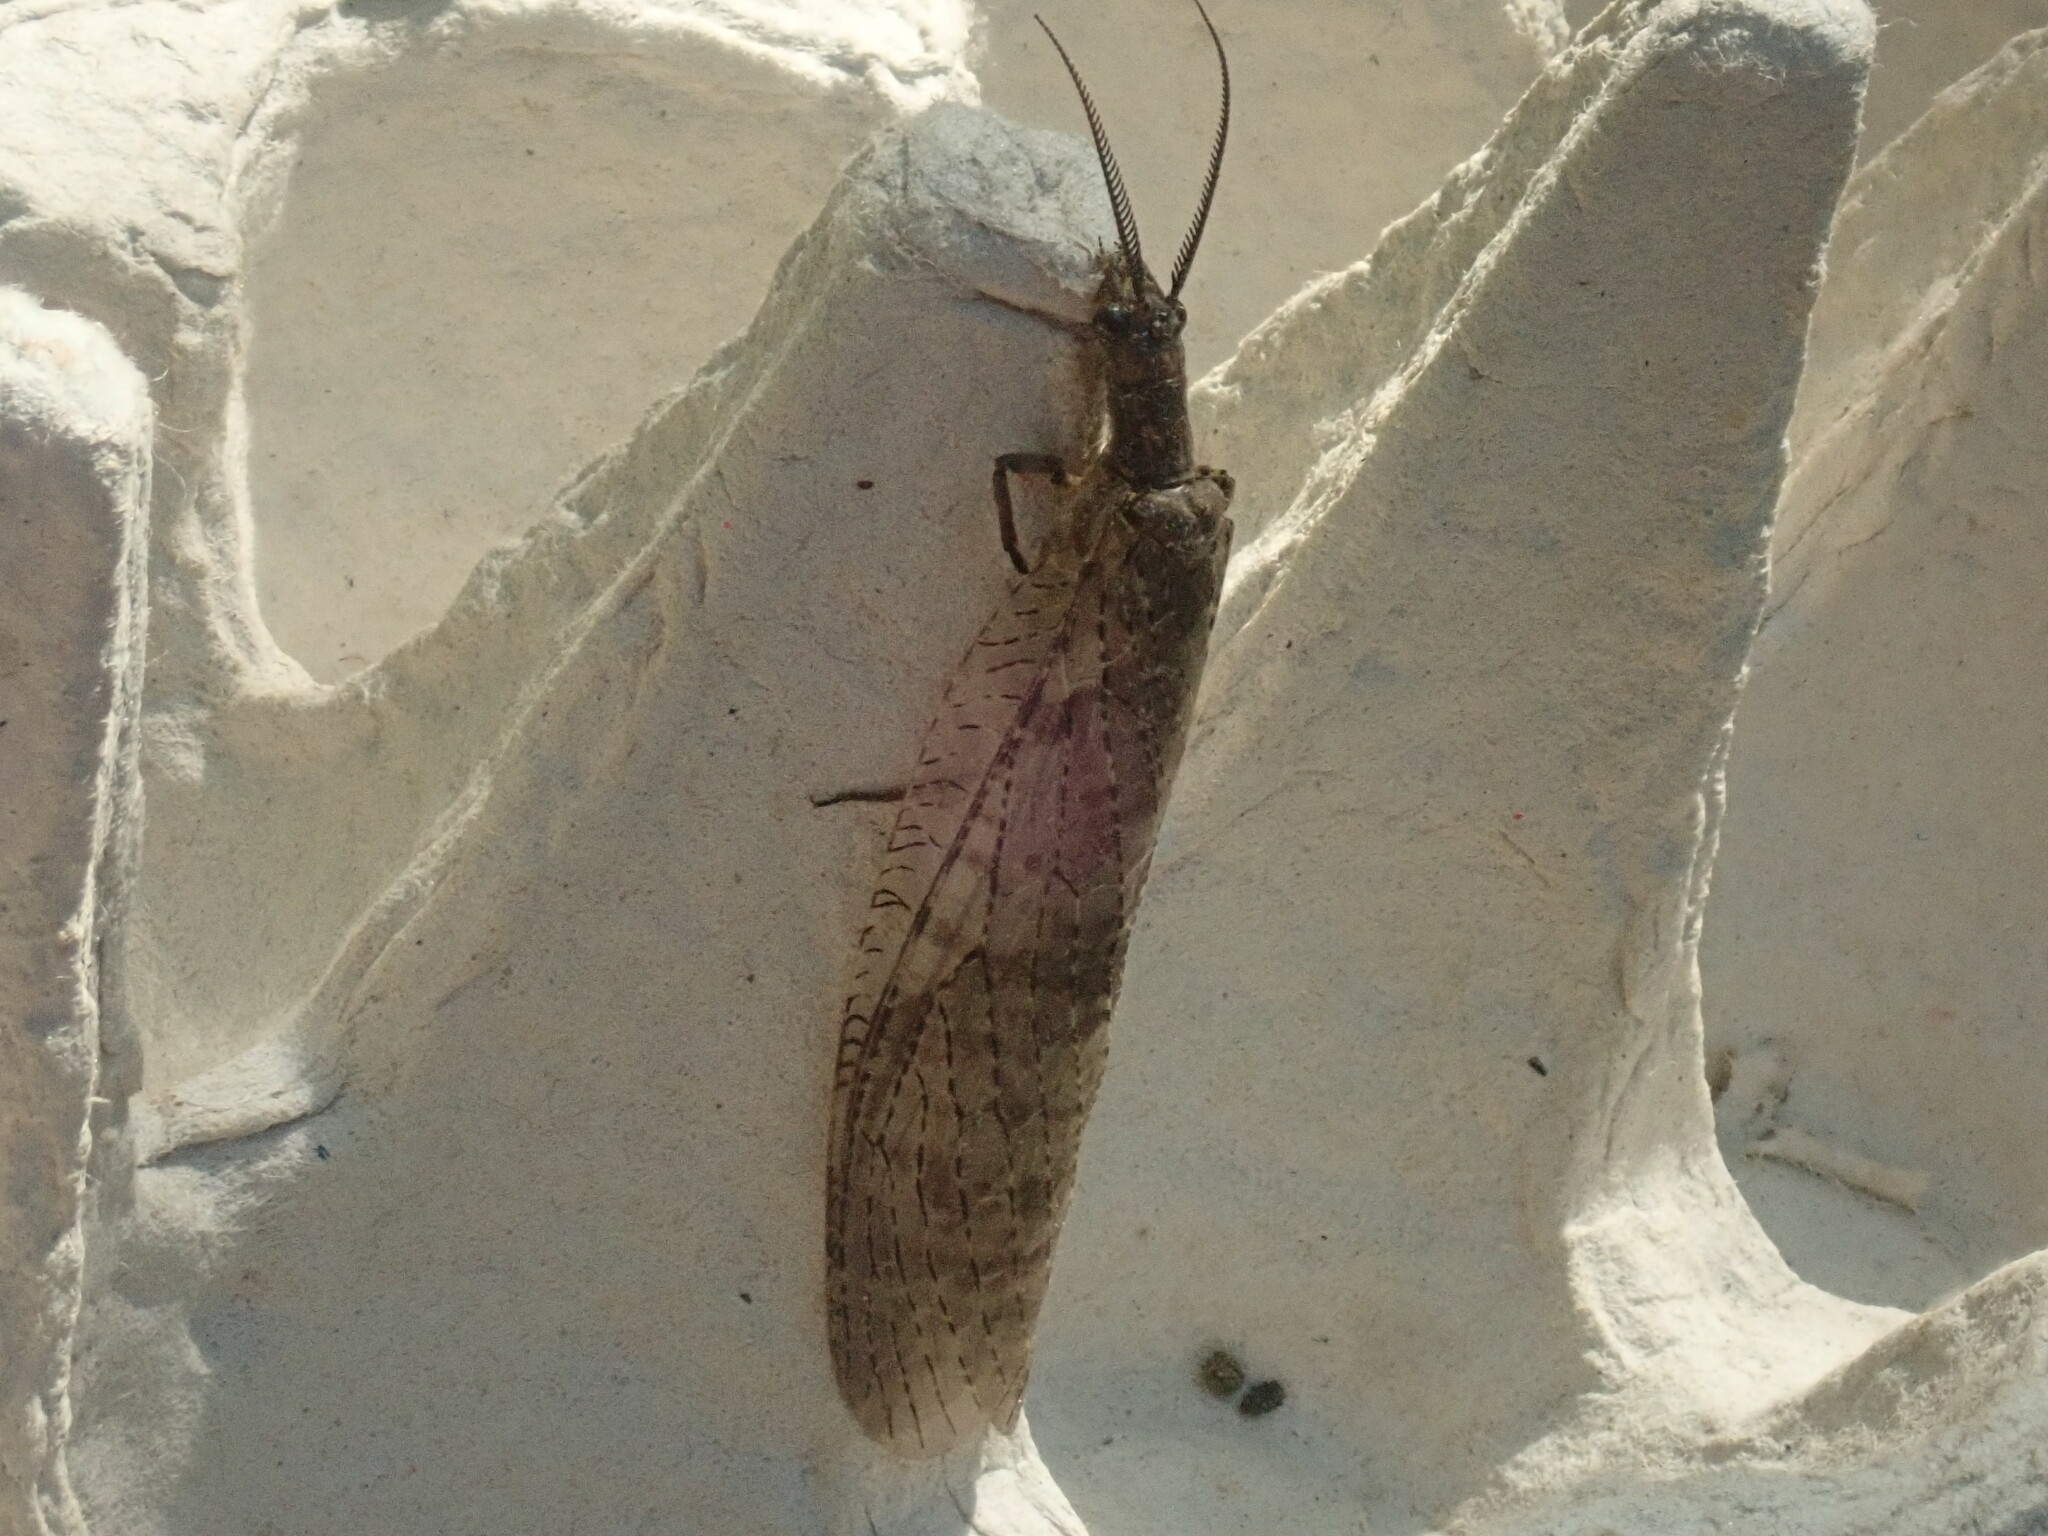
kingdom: Animalia
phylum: Arthropoda
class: Insecta
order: Megaloptera
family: Corydalidae
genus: Chauliodes
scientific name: Chauliodes pectinicornis
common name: Summer fishfly
